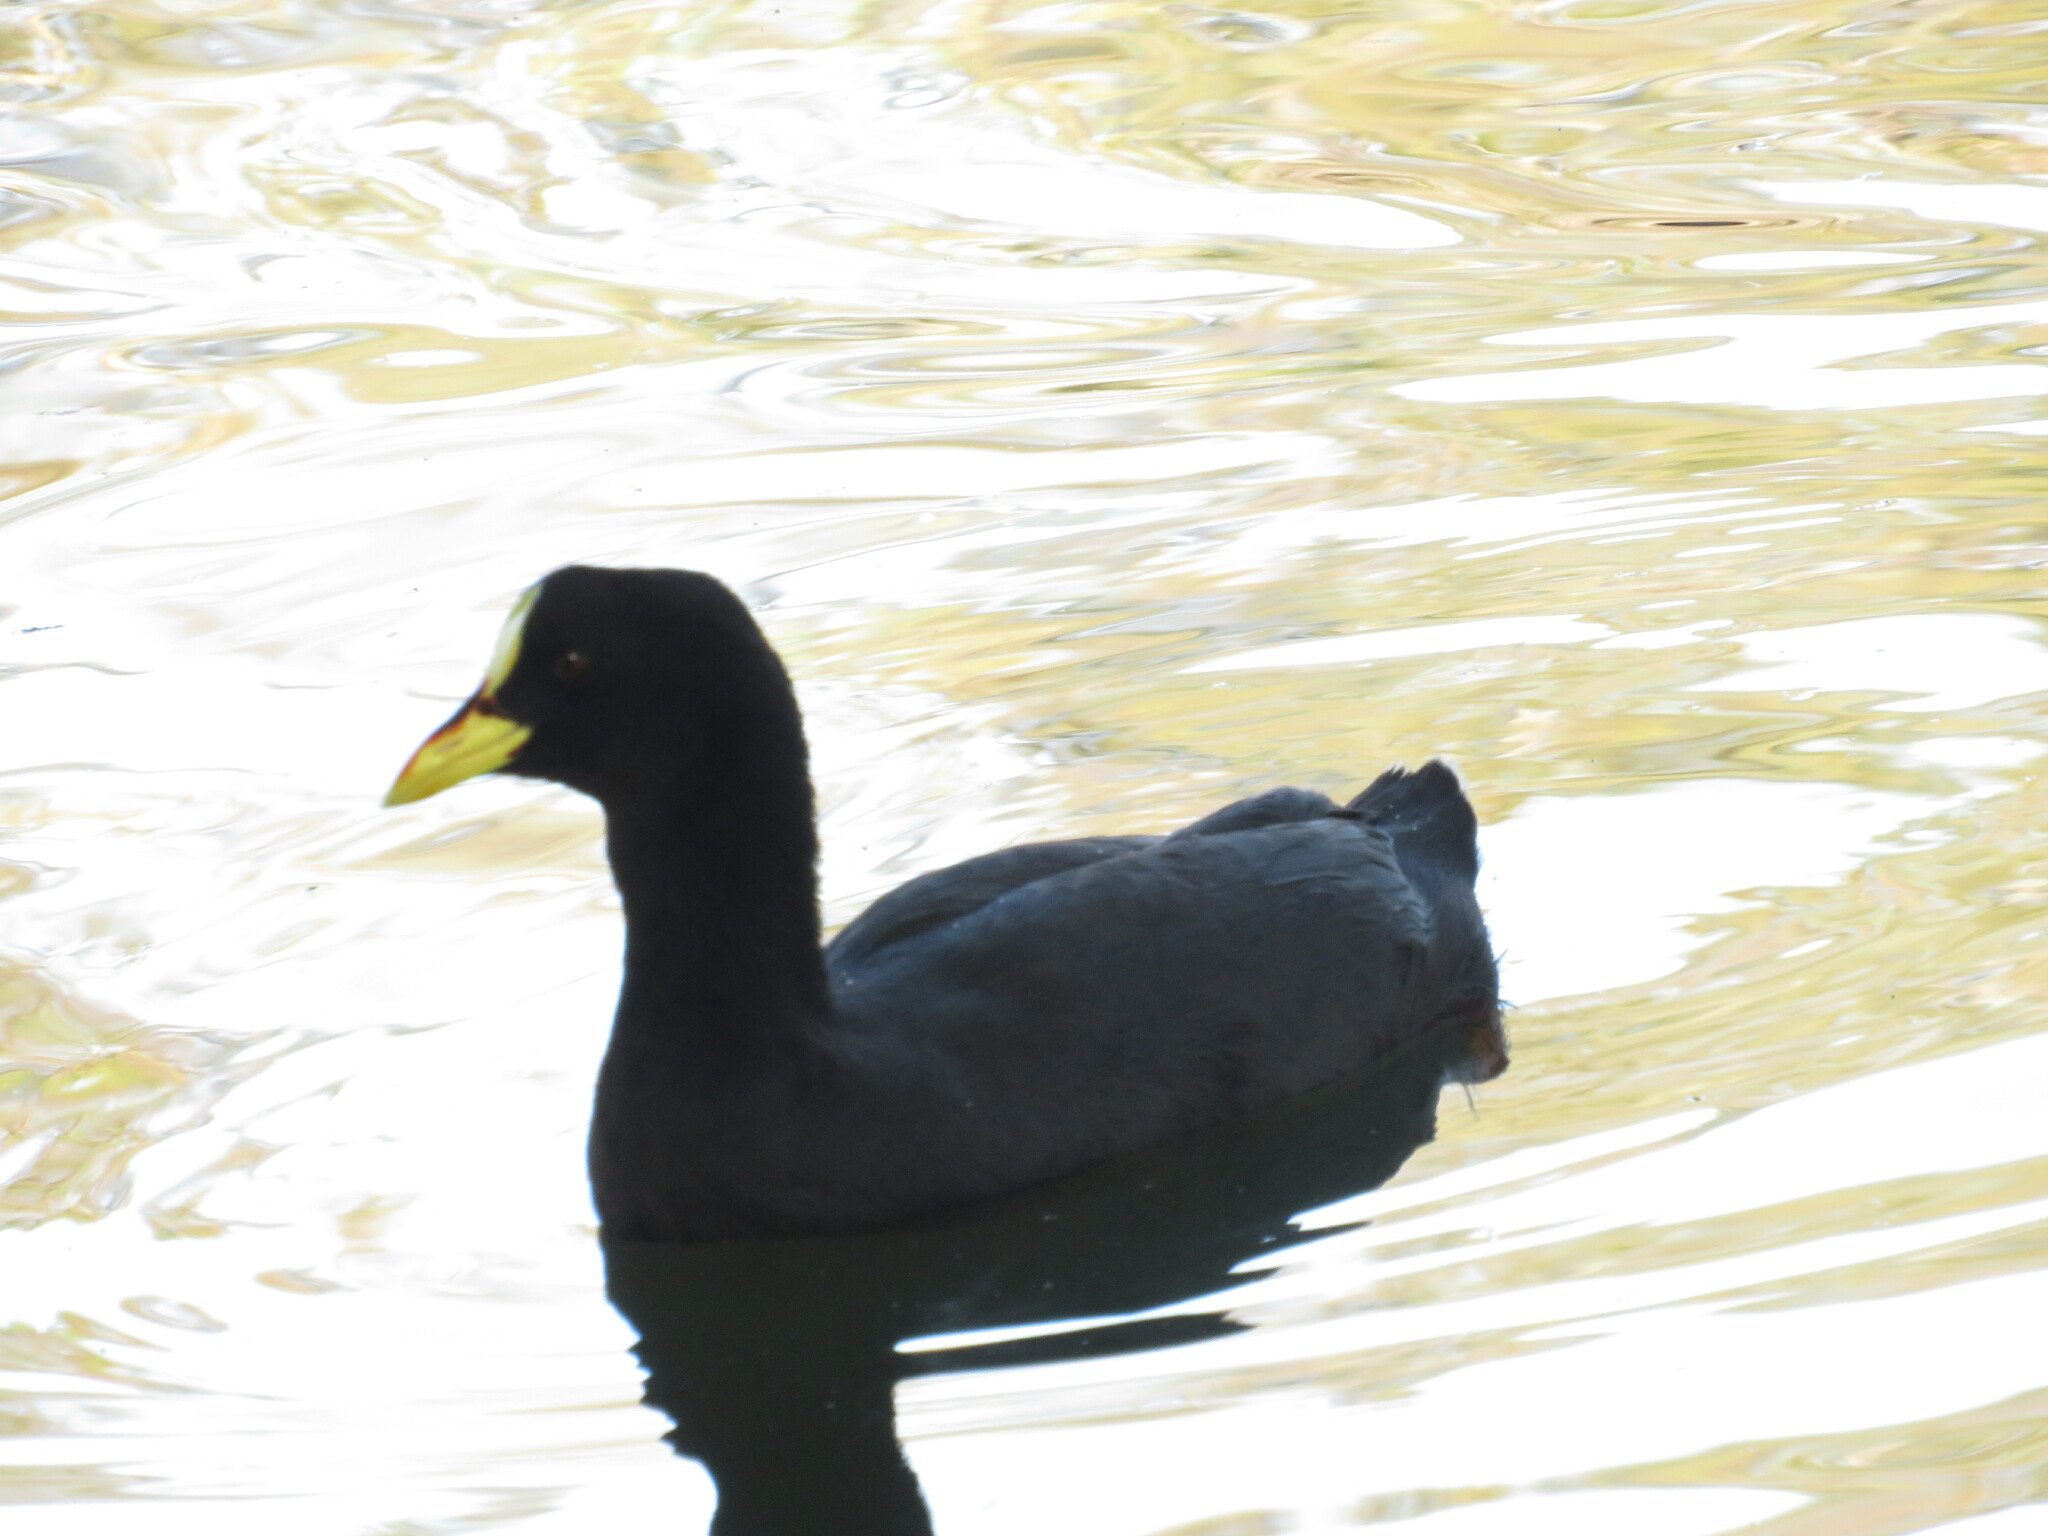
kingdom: Animalia
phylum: Chordata
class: Aves
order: Gruiformes
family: Rallidae
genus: Fulica
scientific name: Fulica armillata
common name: Red-gartered coot
